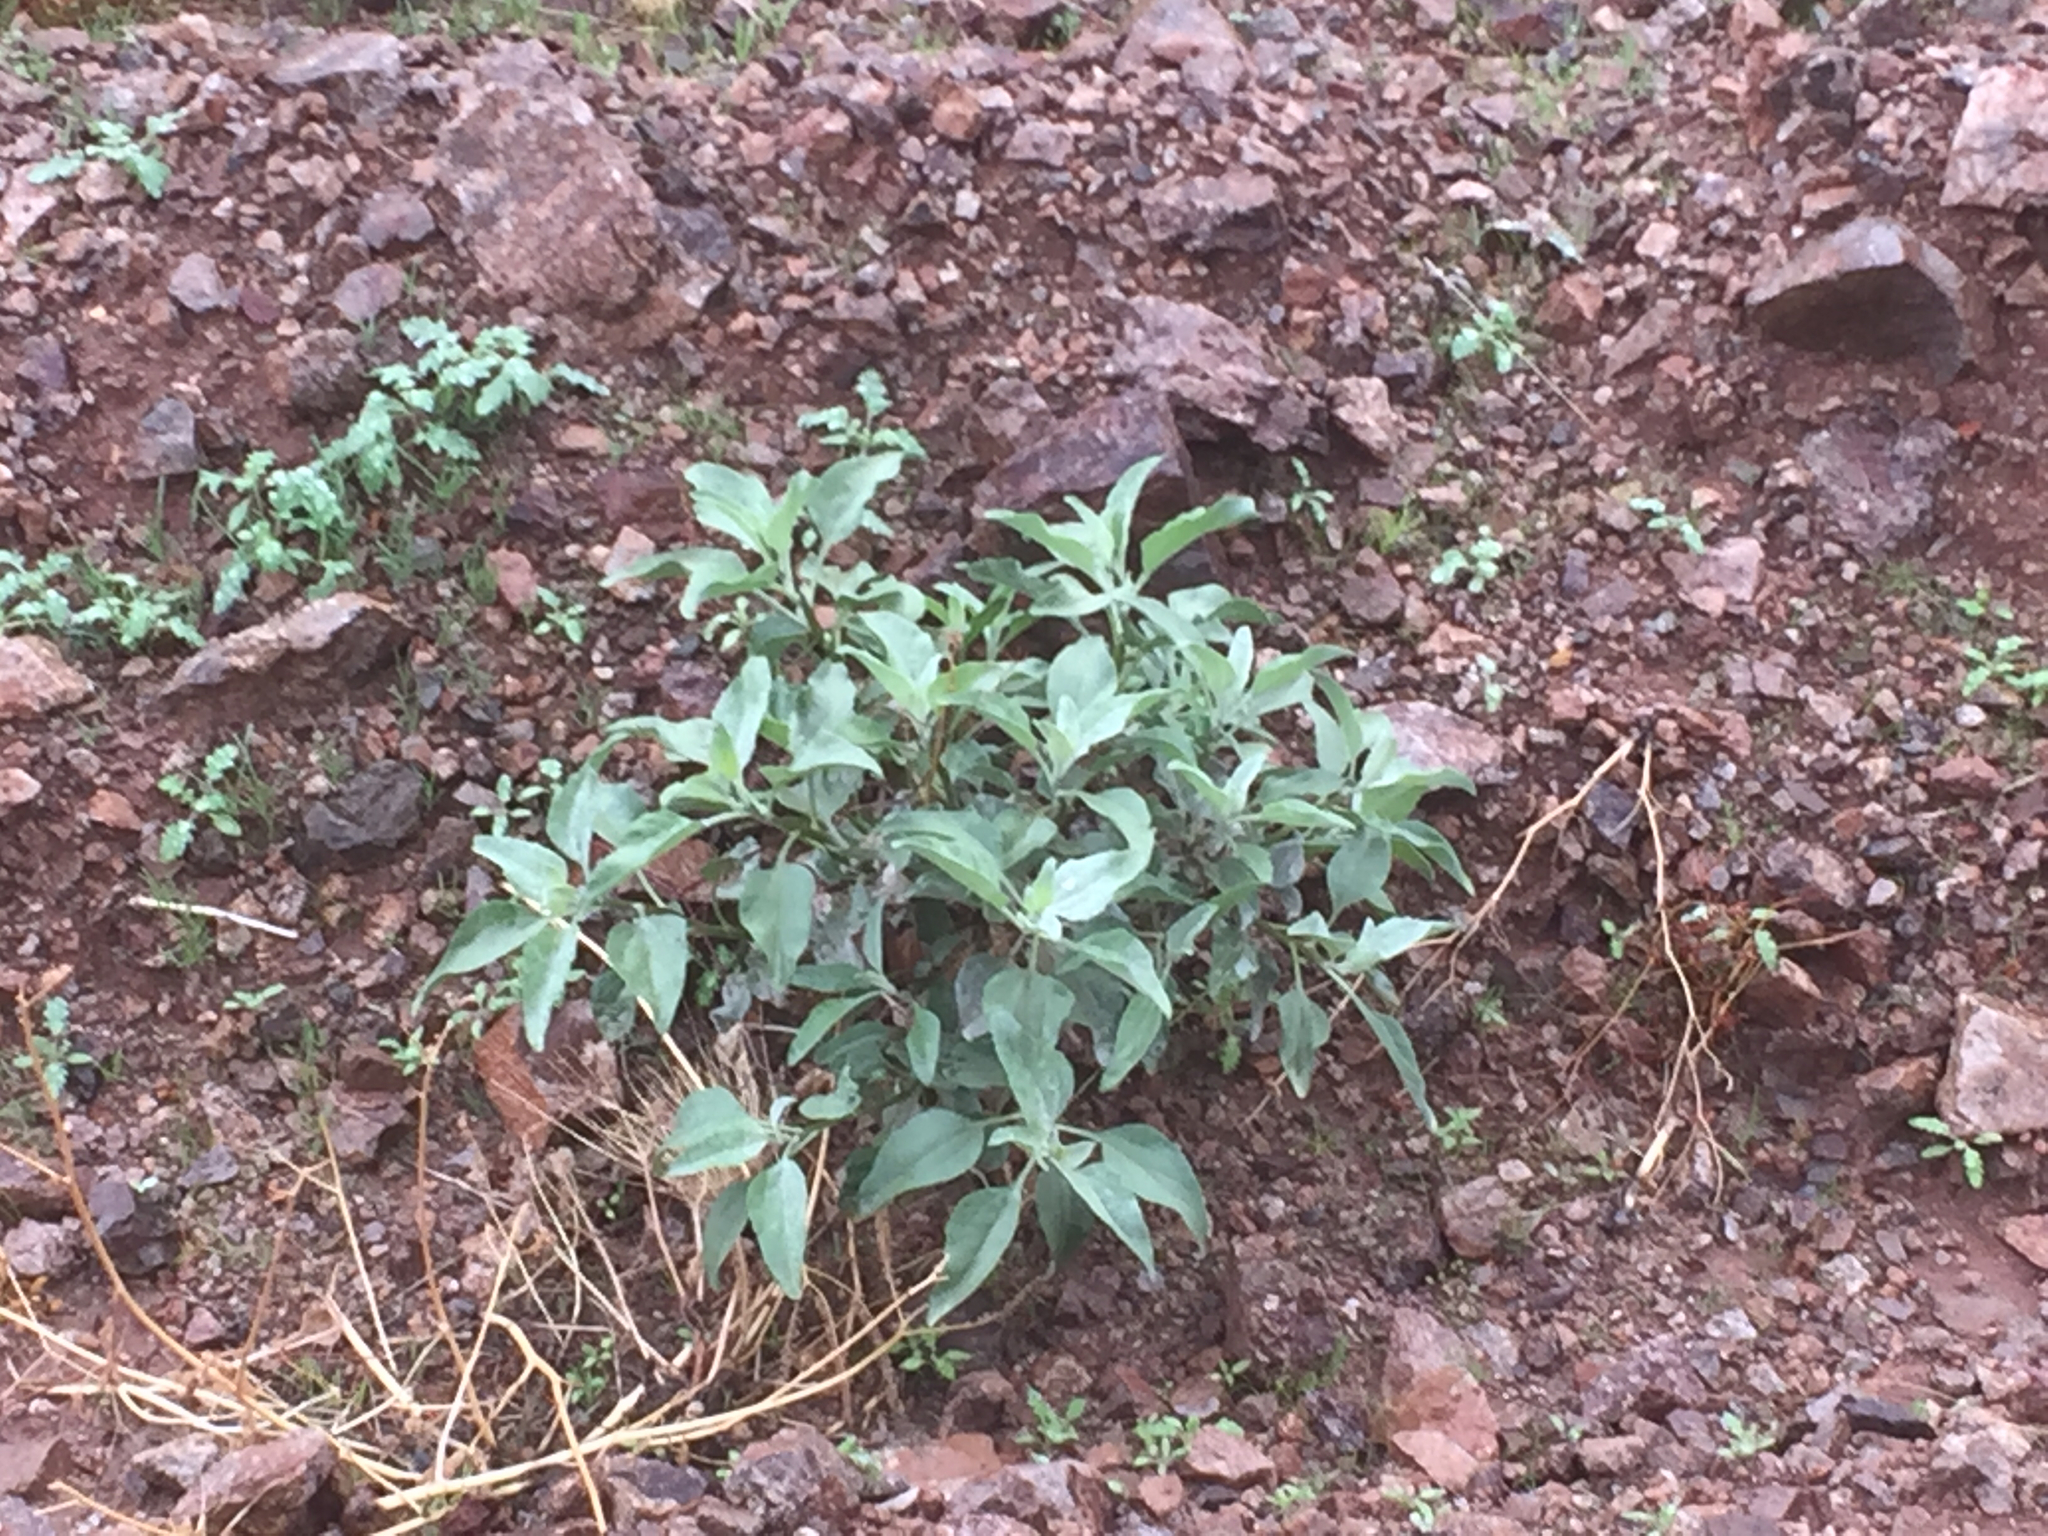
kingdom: Plantae
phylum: Tracheophyta
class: Magnoliopsida
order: Asterales
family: Asteraceae
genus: Encelia
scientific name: Encelia farinosa
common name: Brittlebush
